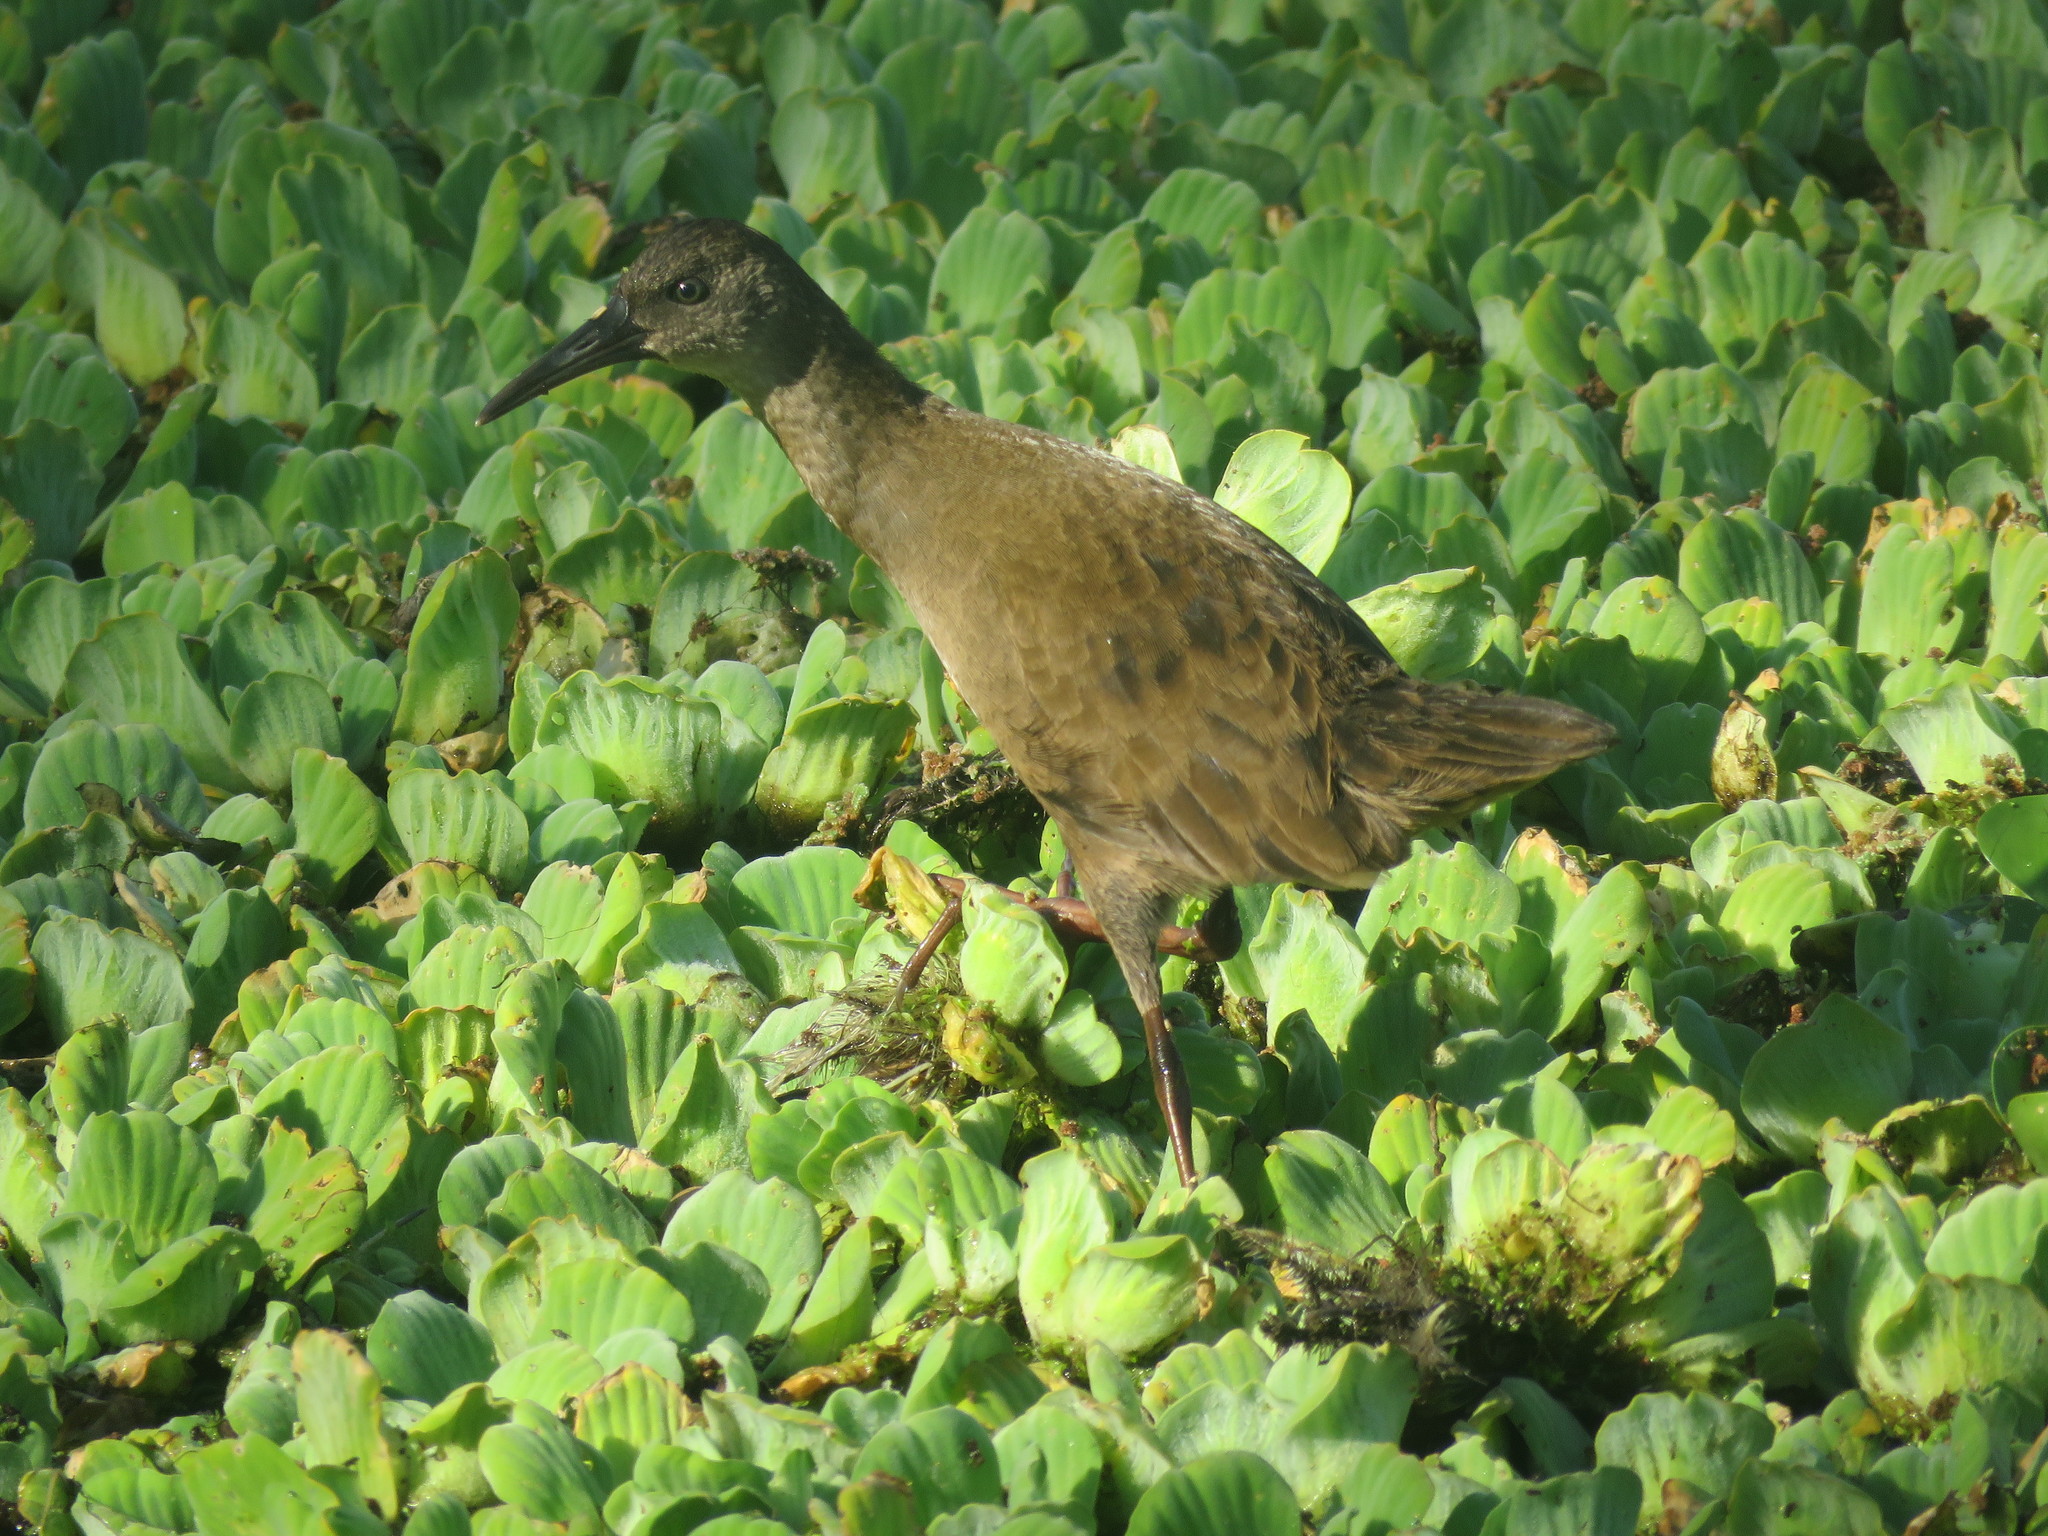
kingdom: Animalia
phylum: Chordata
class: Aves
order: Gruiformes
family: Rallidae
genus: Pardirallus
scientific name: Pardirallus sanguinolentus
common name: Plumbeous rail
